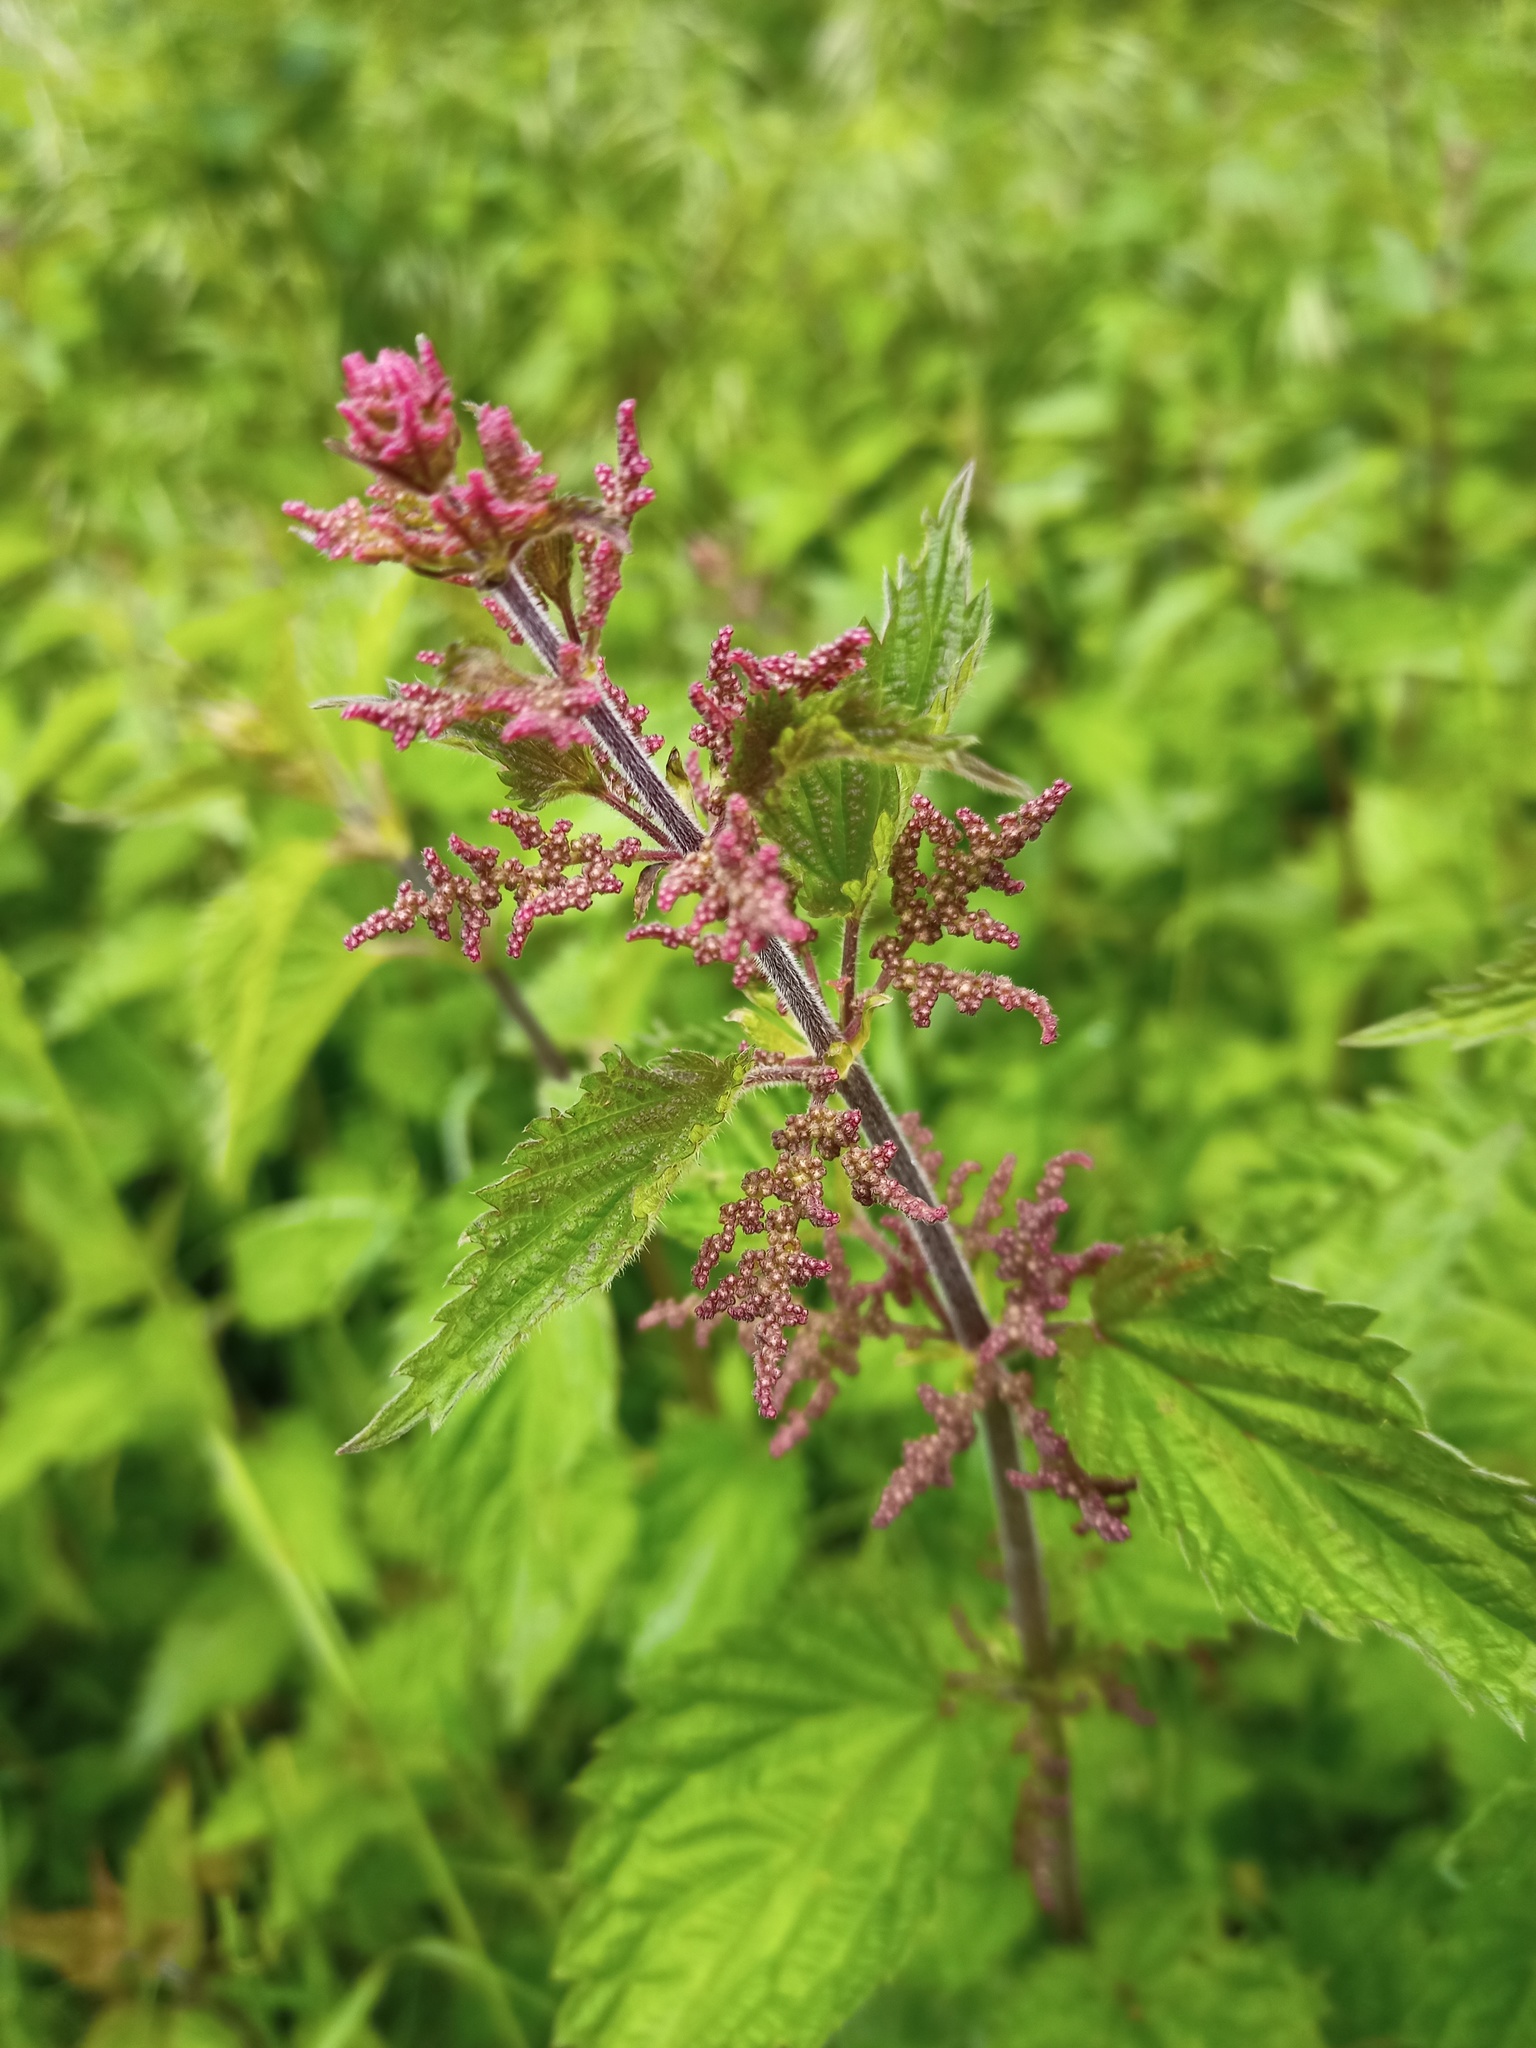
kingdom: Plantae
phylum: Tracheophyta
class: Magnoliopsida
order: Rosales
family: Urticaceae
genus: Urtica
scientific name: Urtica dioica
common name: Common nettle
